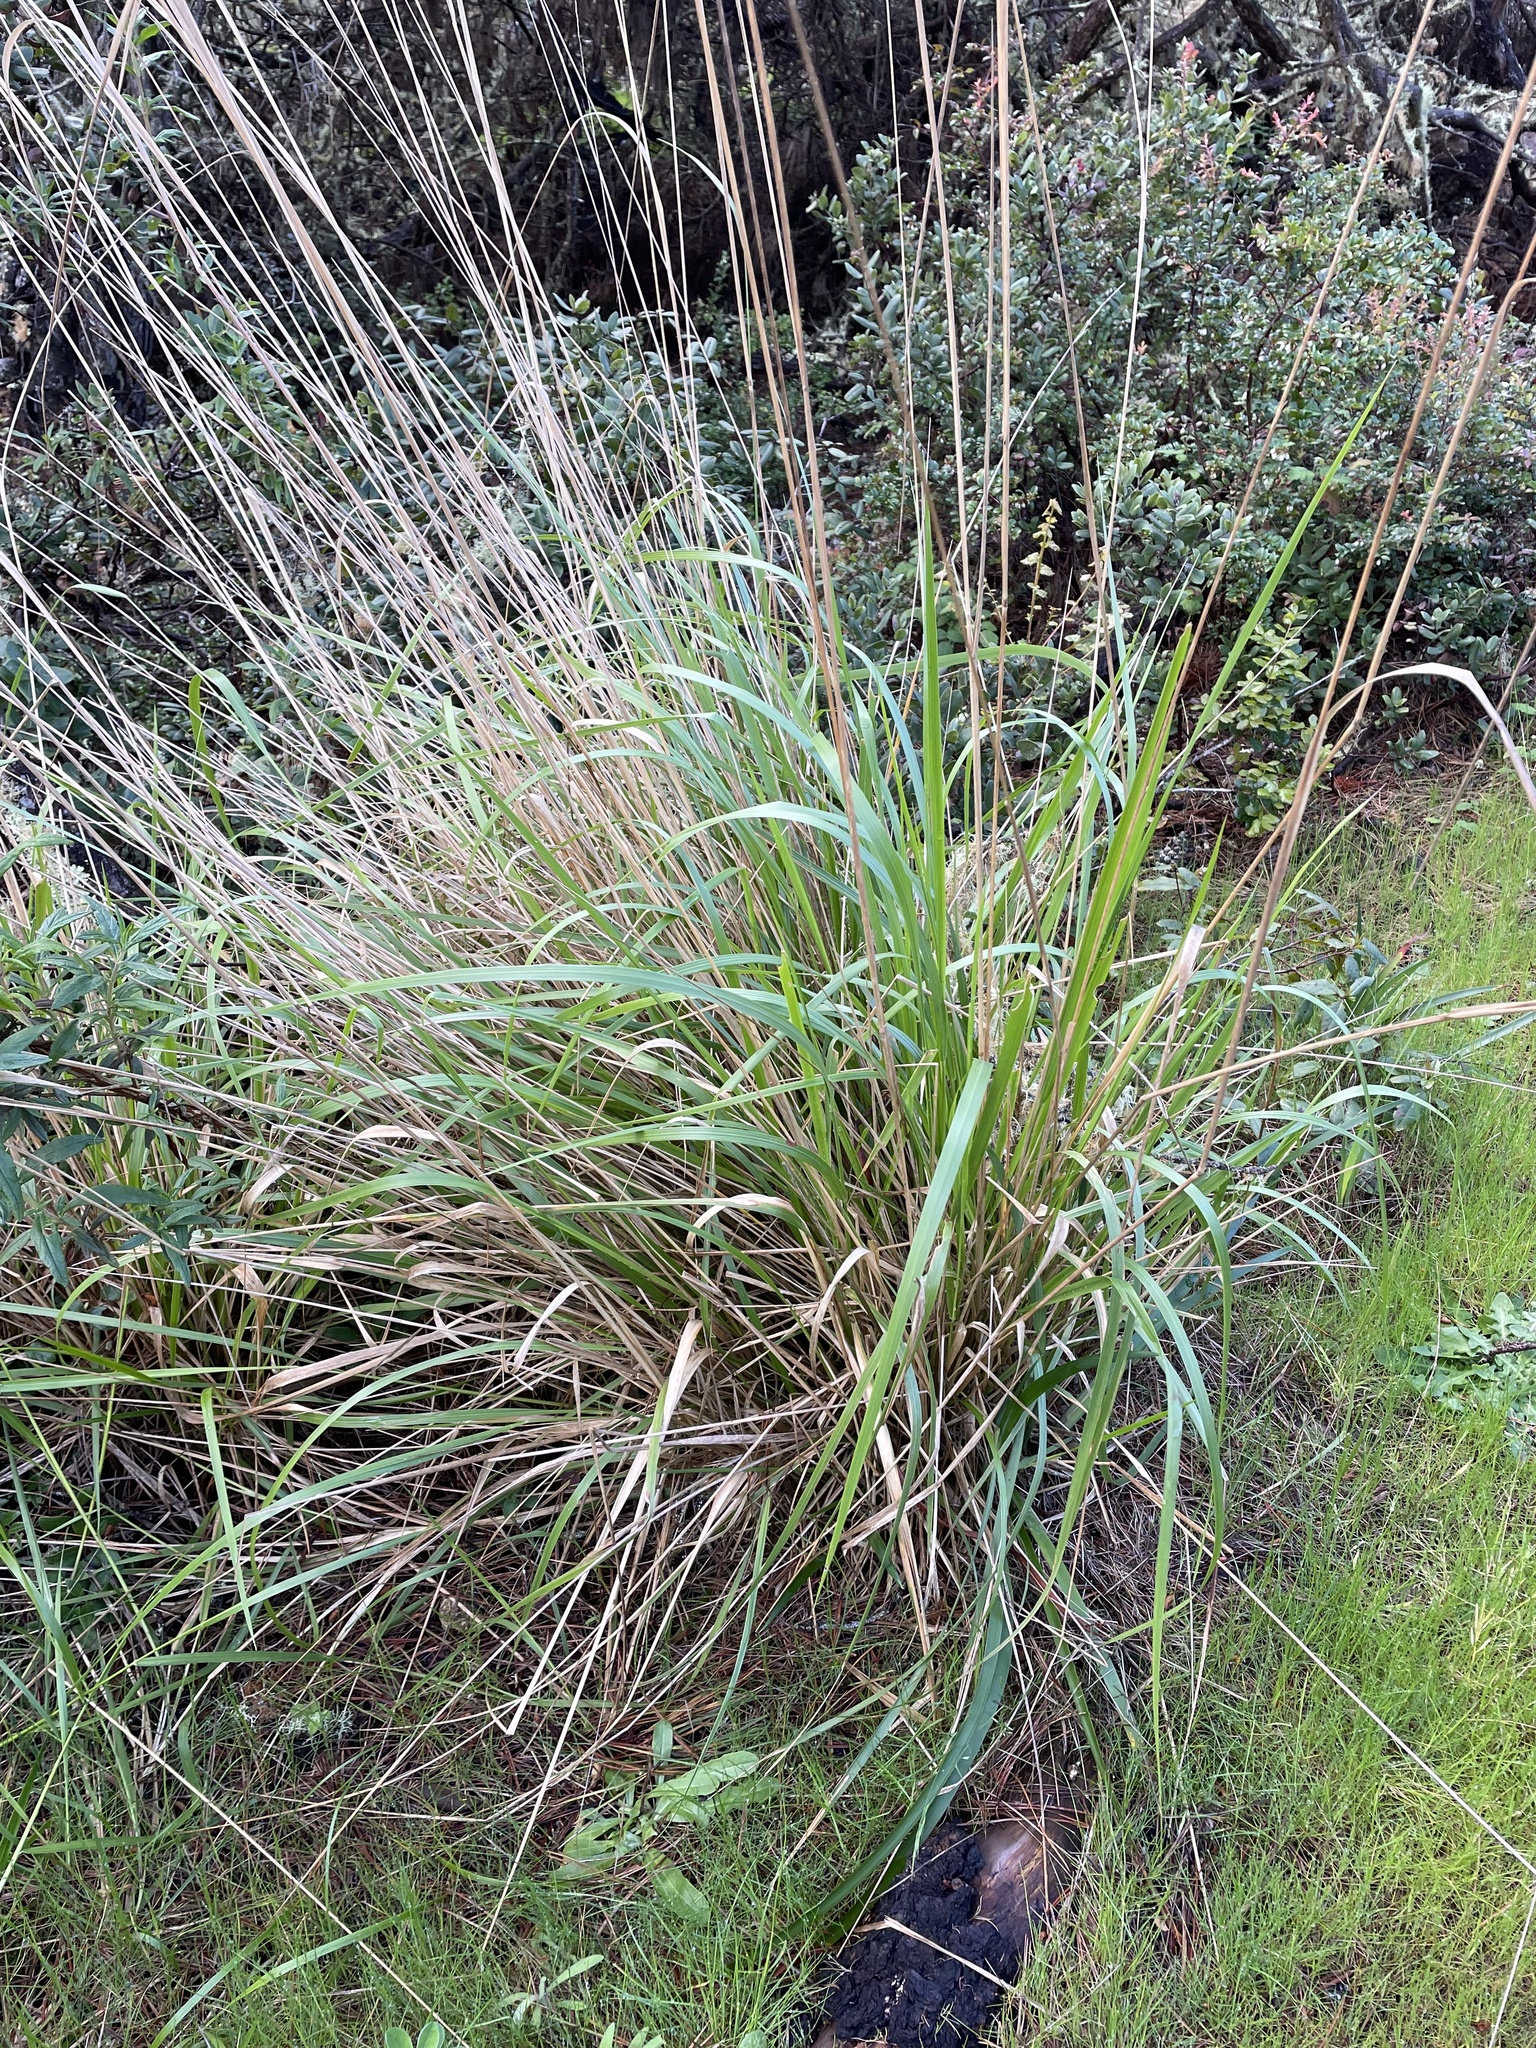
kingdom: Plantae
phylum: Tracheophyta
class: Liliopsida
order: Poales
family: Poaceae
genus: Calamagrostis
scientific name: Calamagrostis nutkaensis
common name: Pacific reed grass
